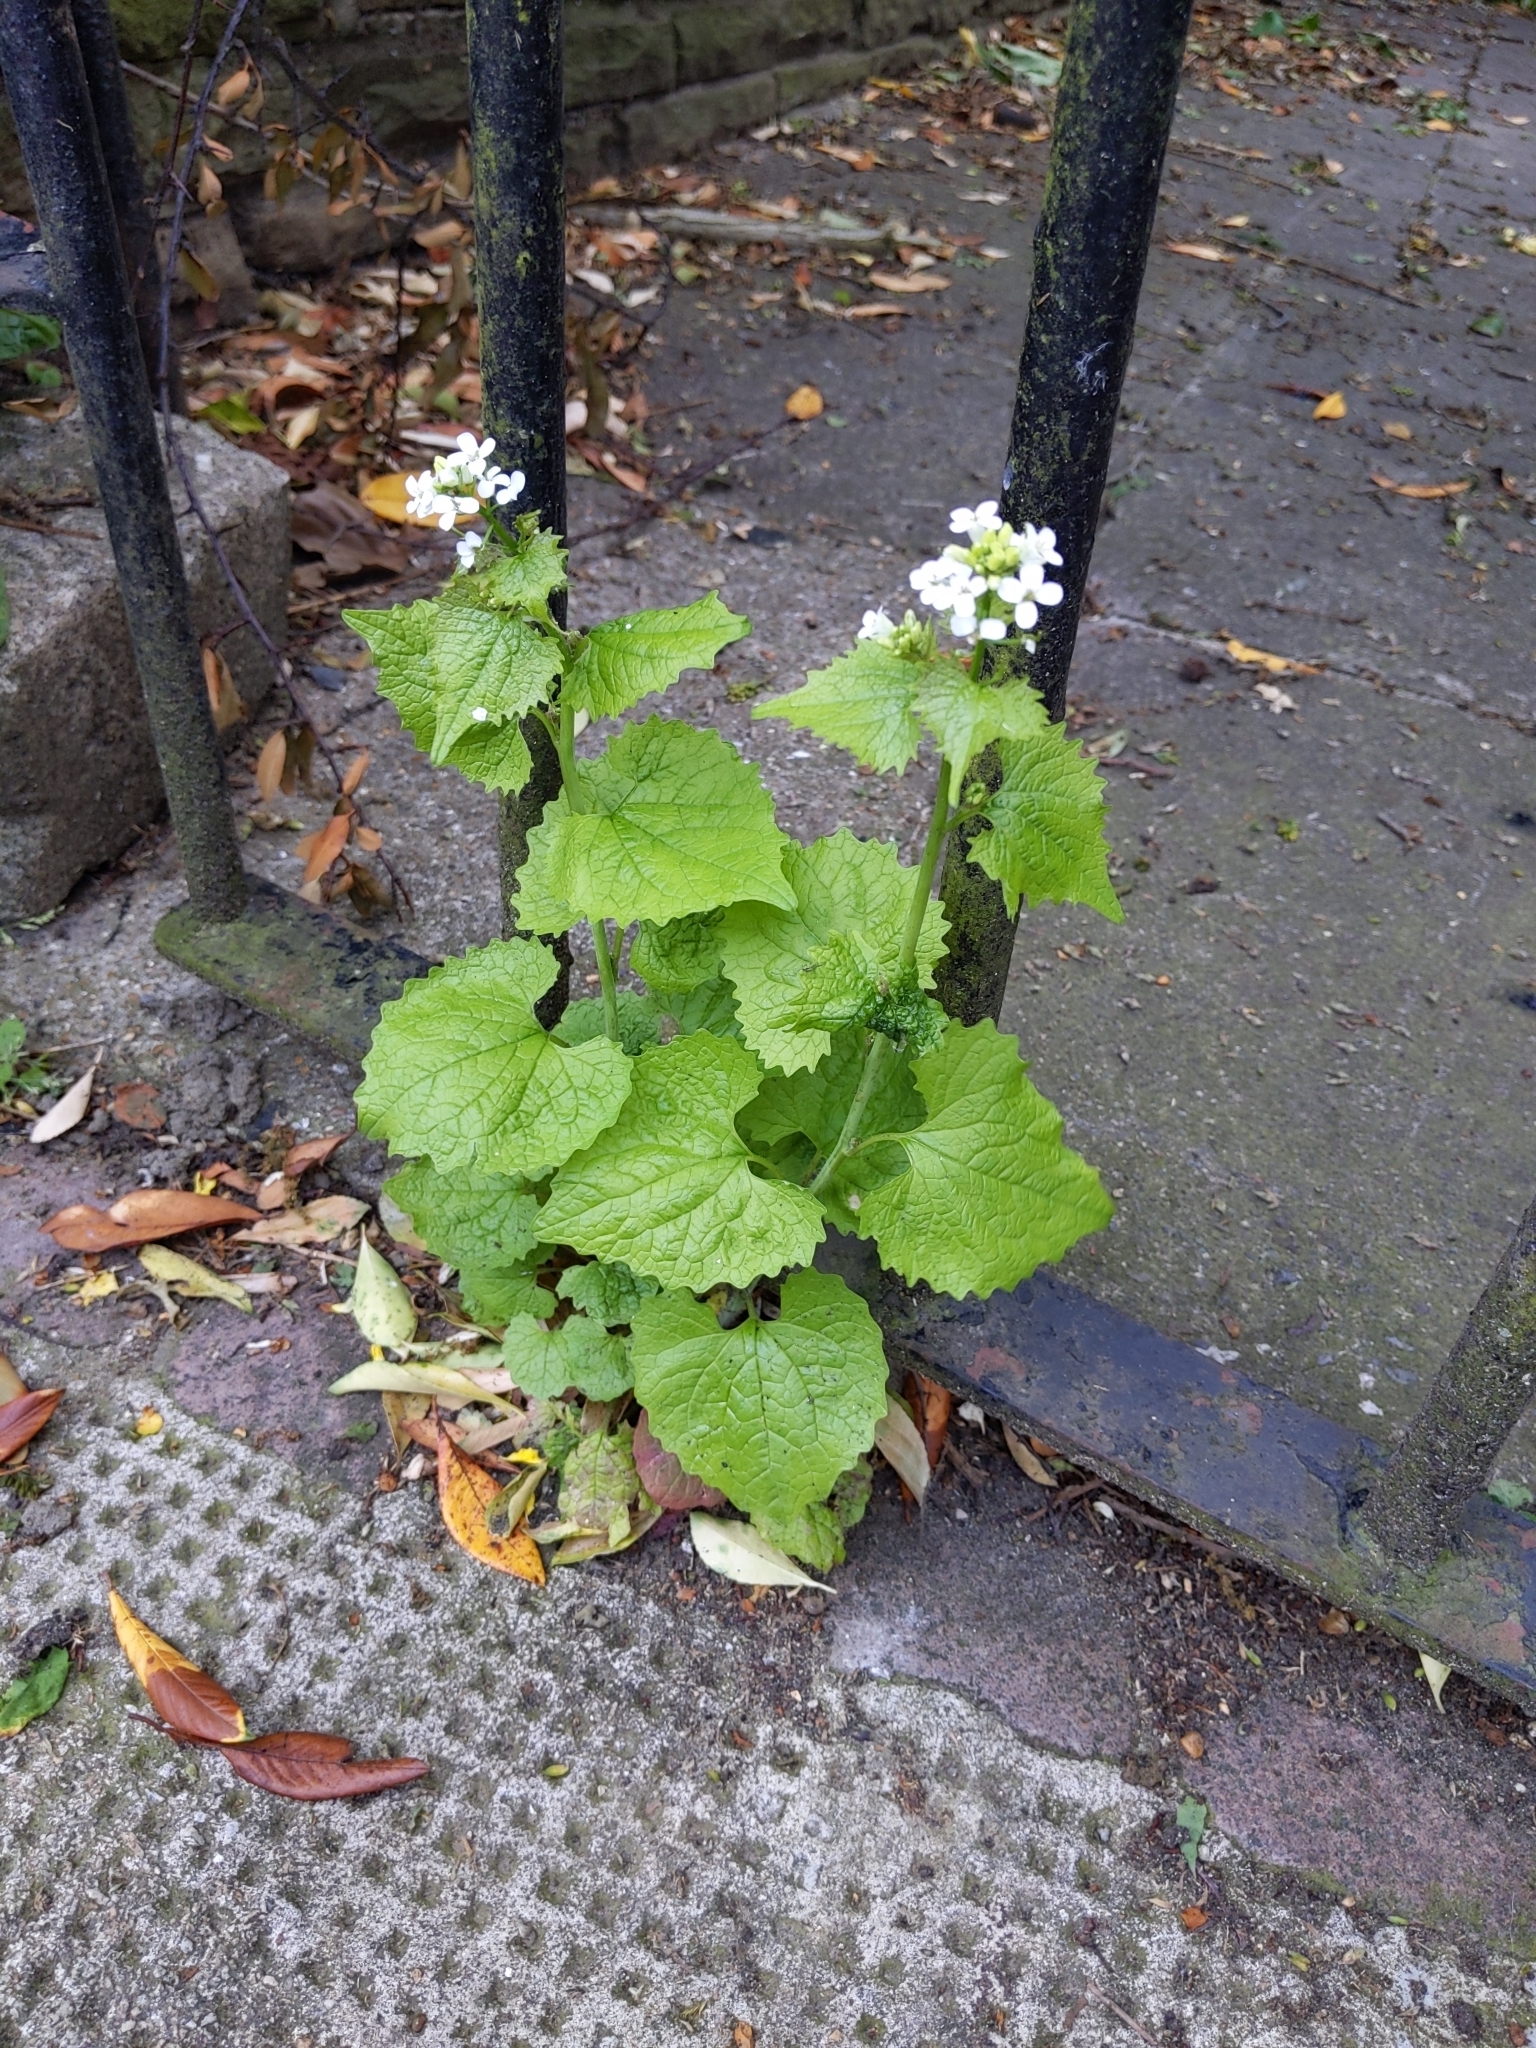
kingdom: Plantae
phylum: Tracheophyta
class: Magnoliopsida
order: Brassicales
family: Brassicaceae
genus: Alliaria
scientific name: Alliaria petiolata
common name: Garlic mustard
